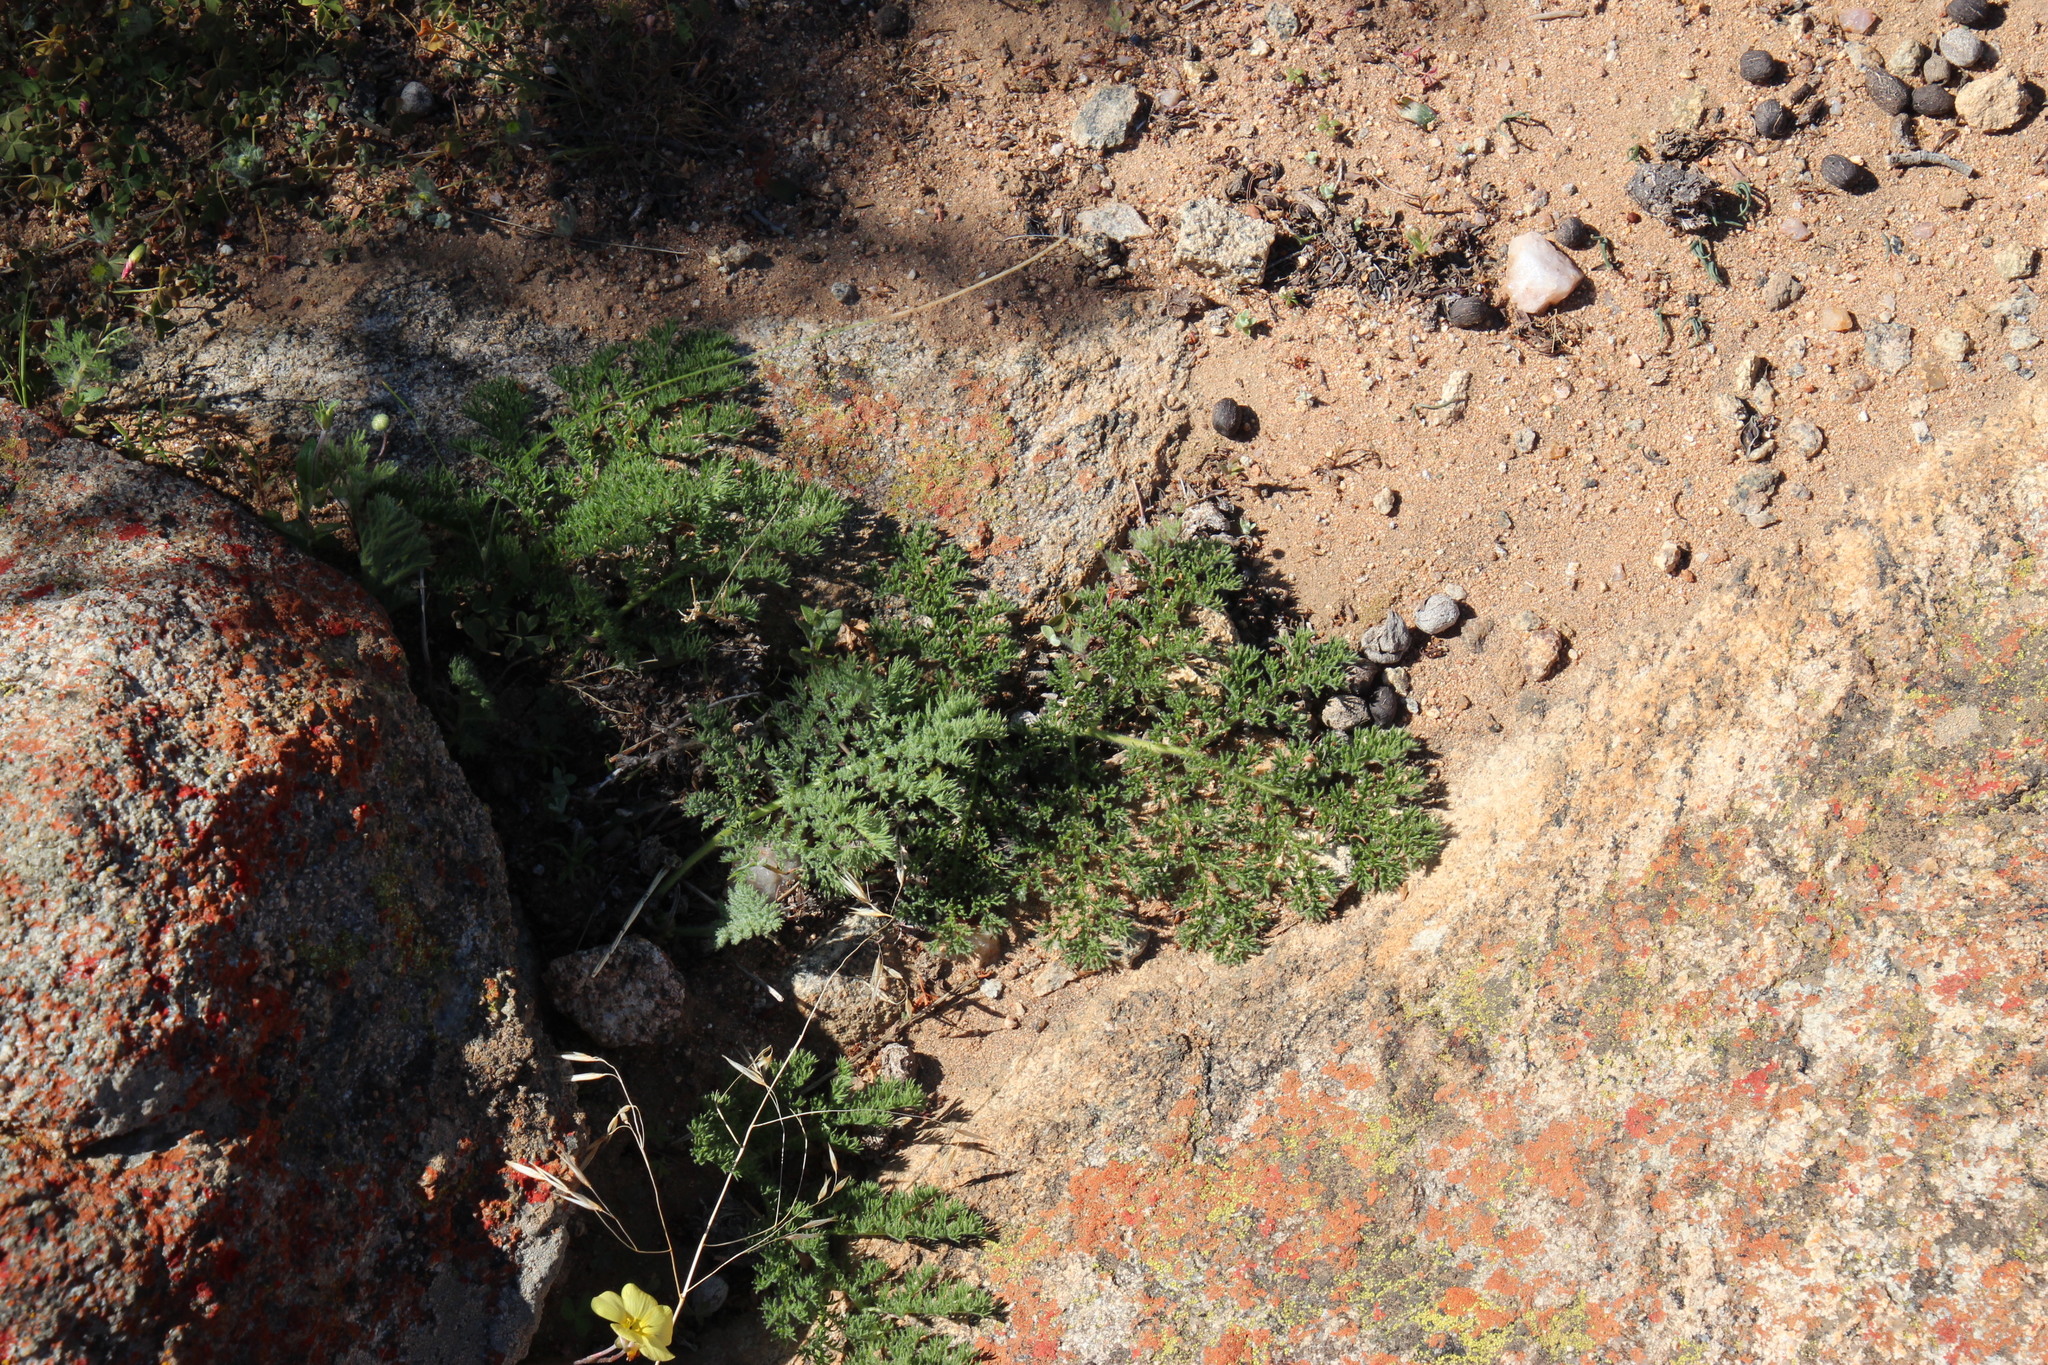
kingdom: Plantae
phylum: Tracheophyta
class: Magnoliopsida
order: Geraniales
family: Geraniaceae
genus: Pelargonium
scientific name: Pelargonium triste
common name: Night-scent pelargonium
